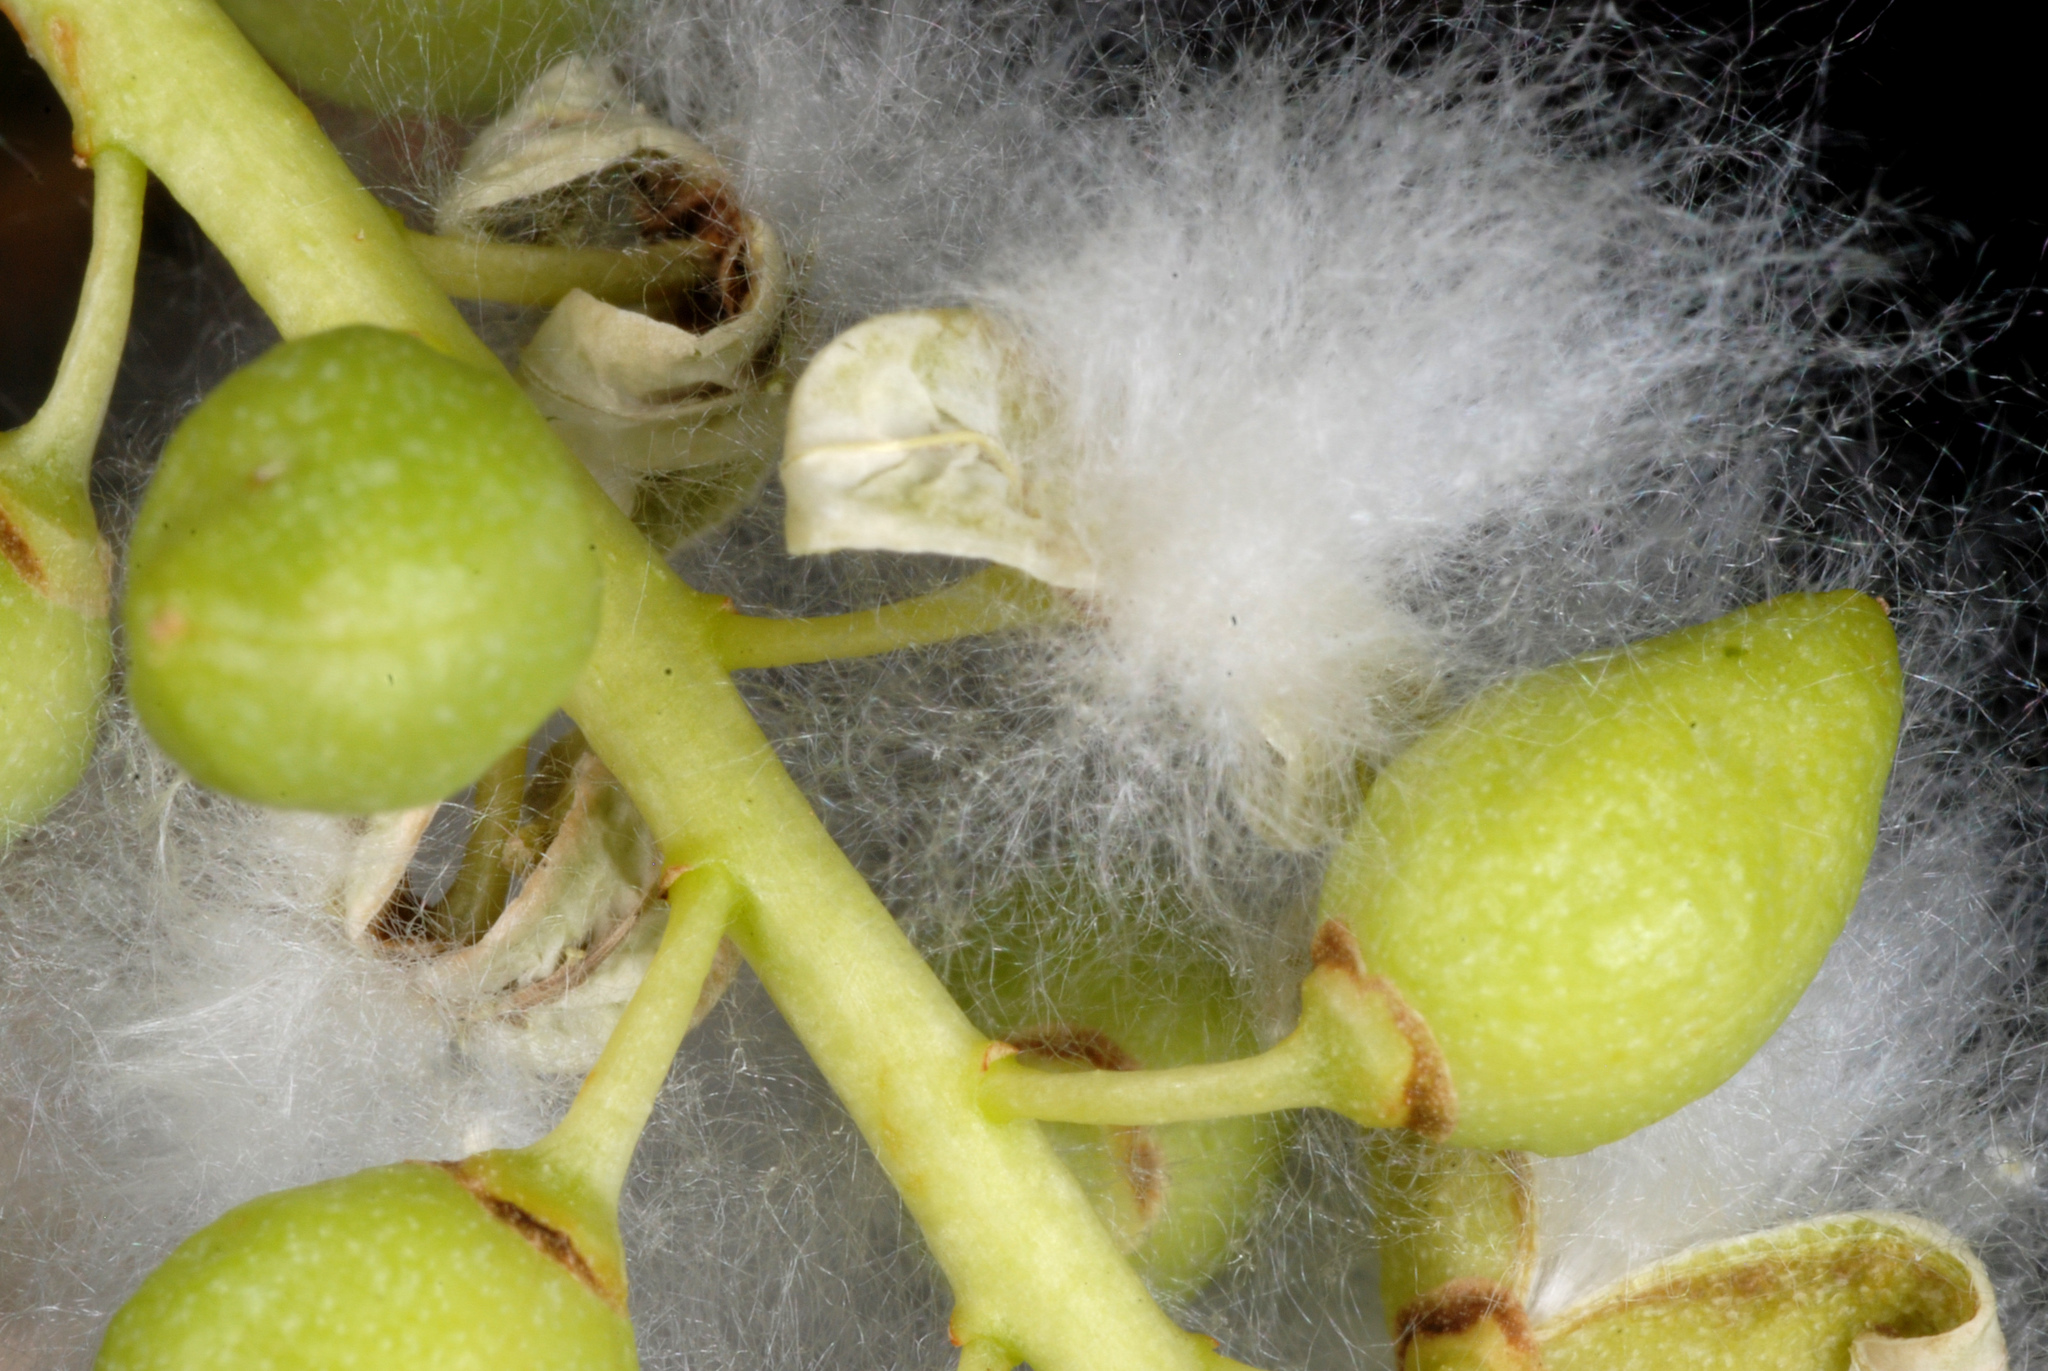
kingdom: Plantae
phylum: Tracheophyta
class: Magnoliopsida
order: Malpighiales
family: Salicaceae
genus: Populus
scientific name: Populus acuminata
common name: Lance-leaved cottonwood
